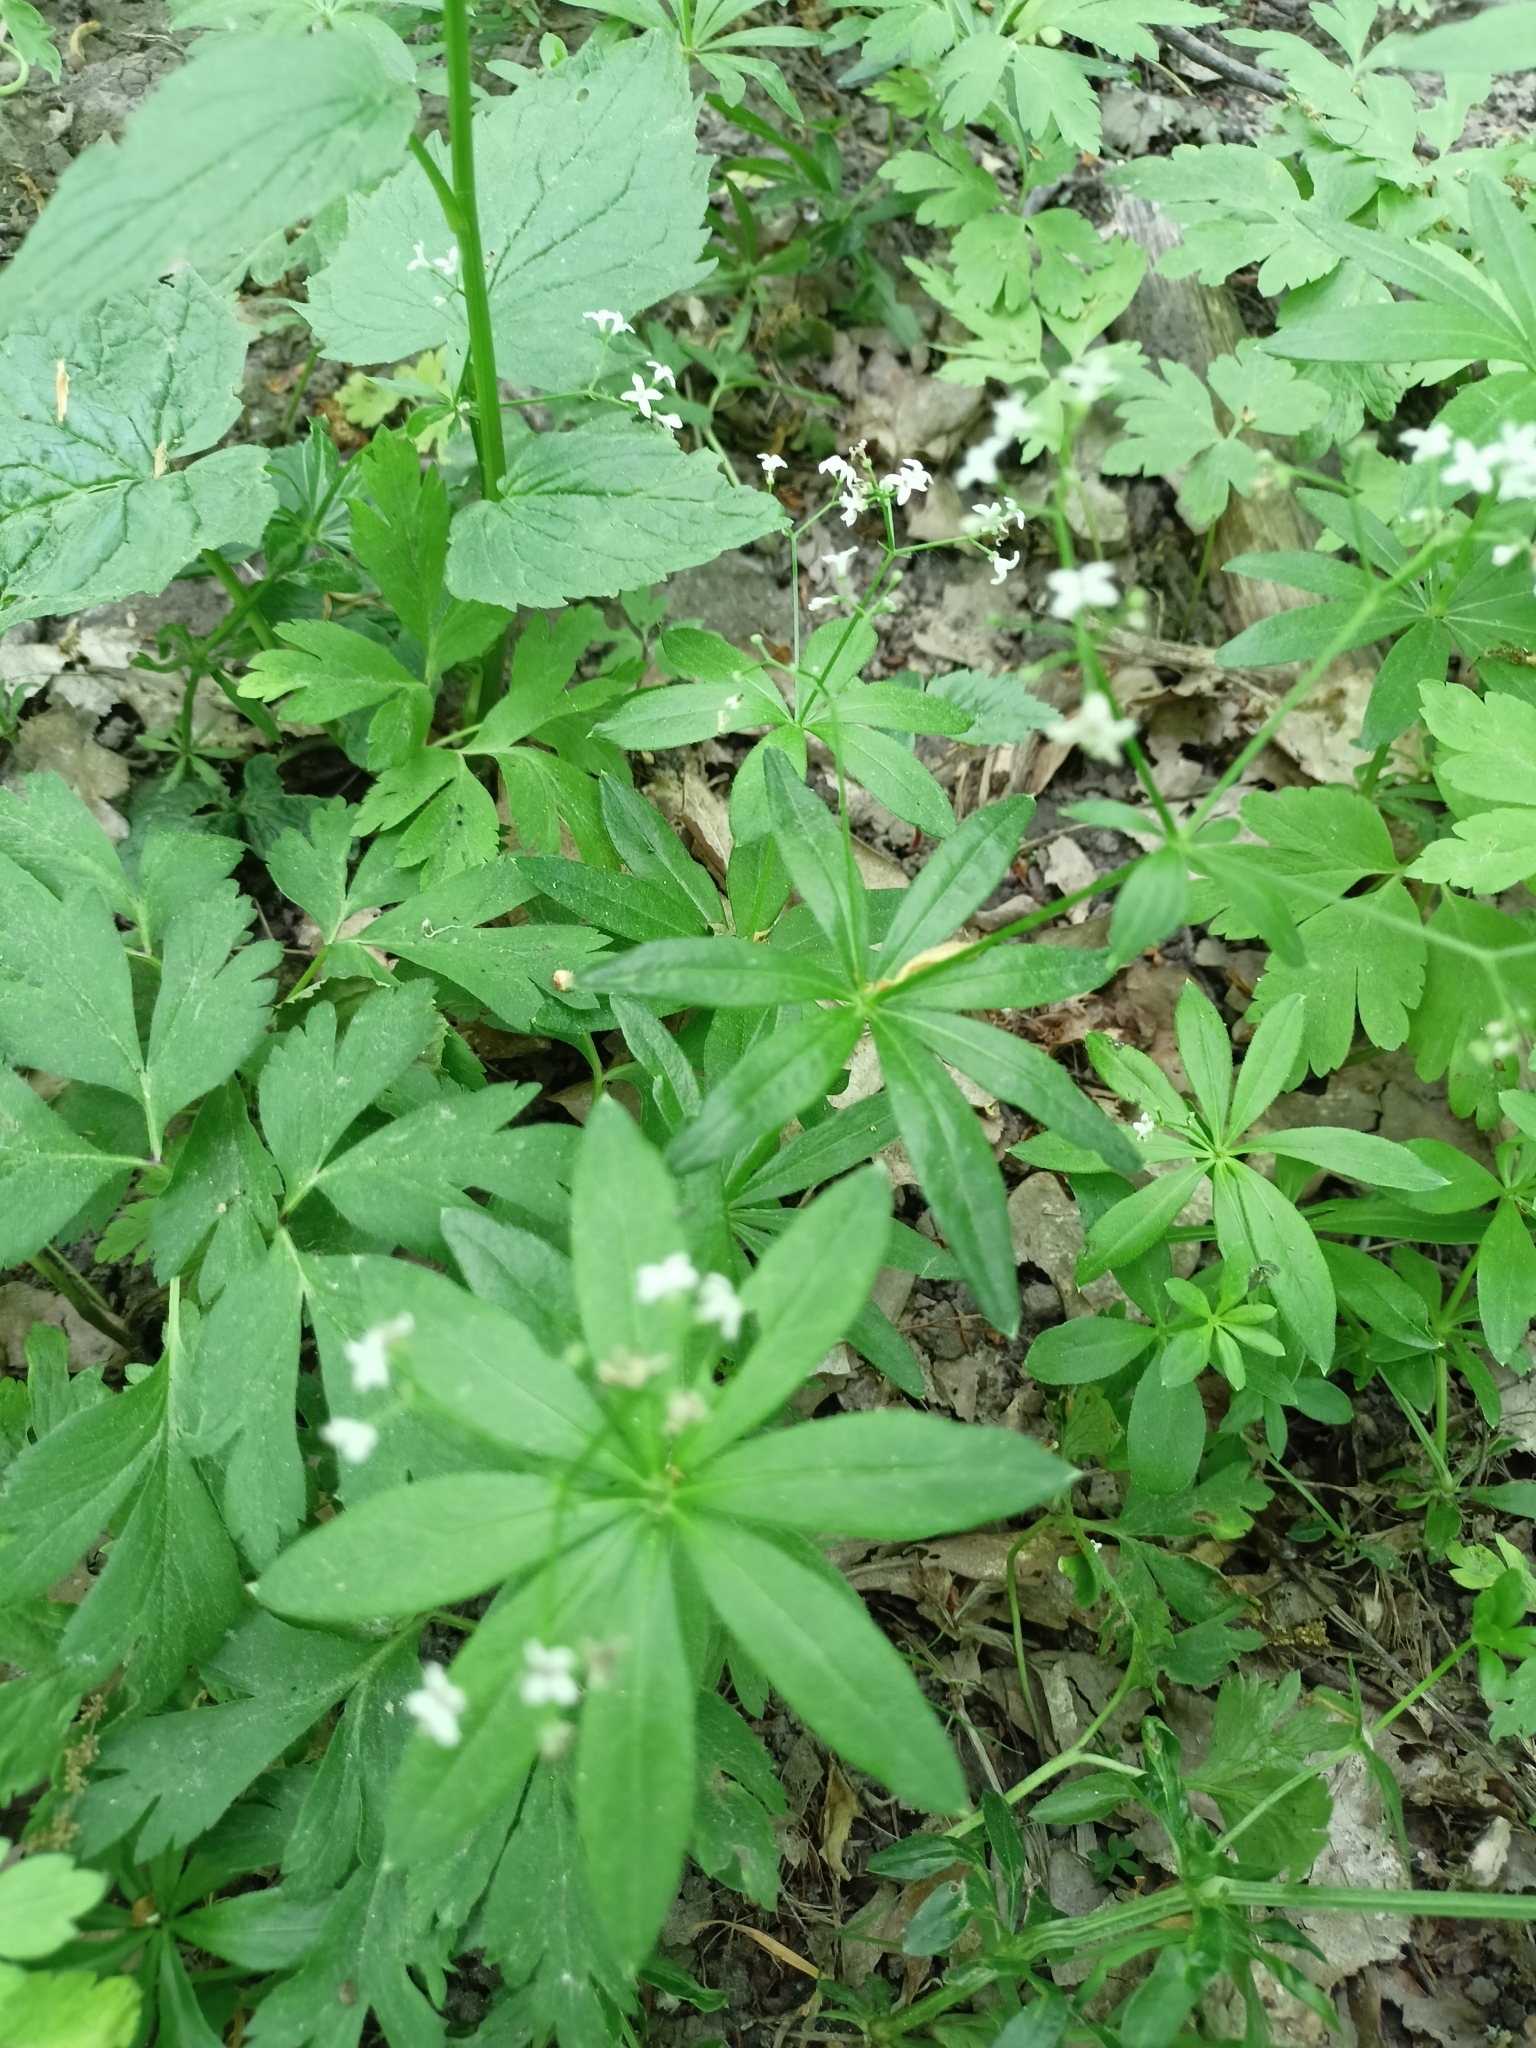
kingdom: Plantae
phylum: Tracheophyta
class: Magnoliopsida
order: Gentianales
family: Rubiaceae
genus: Galium
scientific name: Galium odoratum
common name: Sweet woodruff
